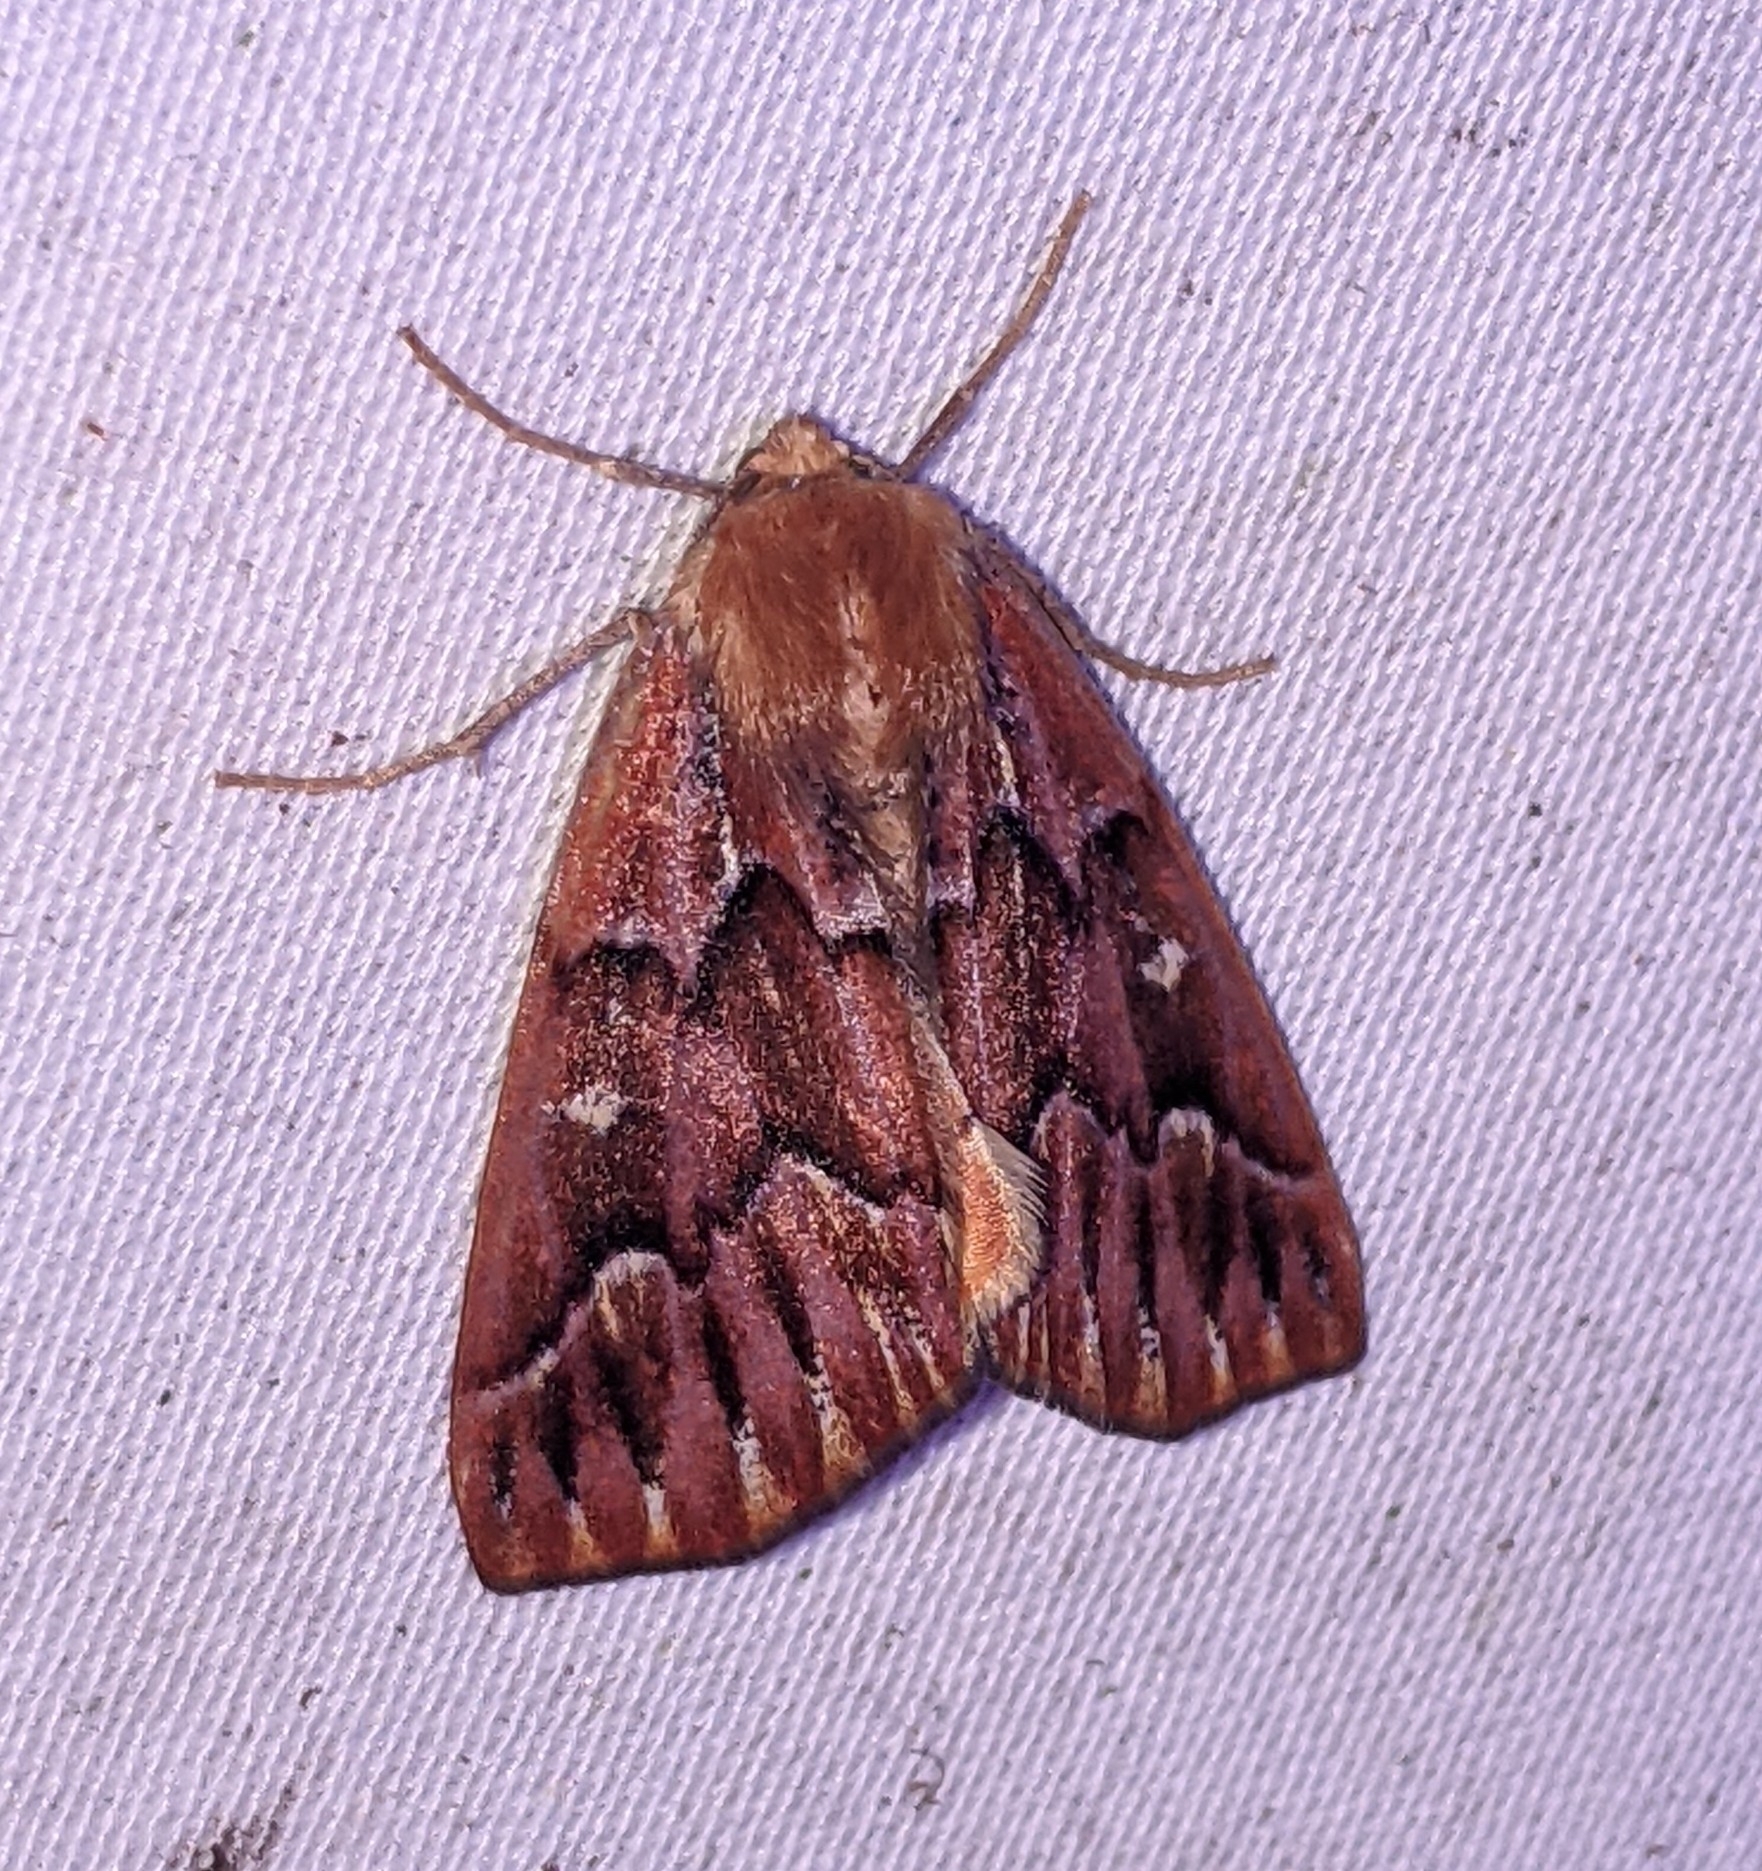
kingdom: Animalia
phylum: Arthropoda
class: Insecta
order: Lepidoptera
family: Geometridae
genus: Caripeta
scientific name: Caripeta aequaliaria
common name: Red girdle moth
